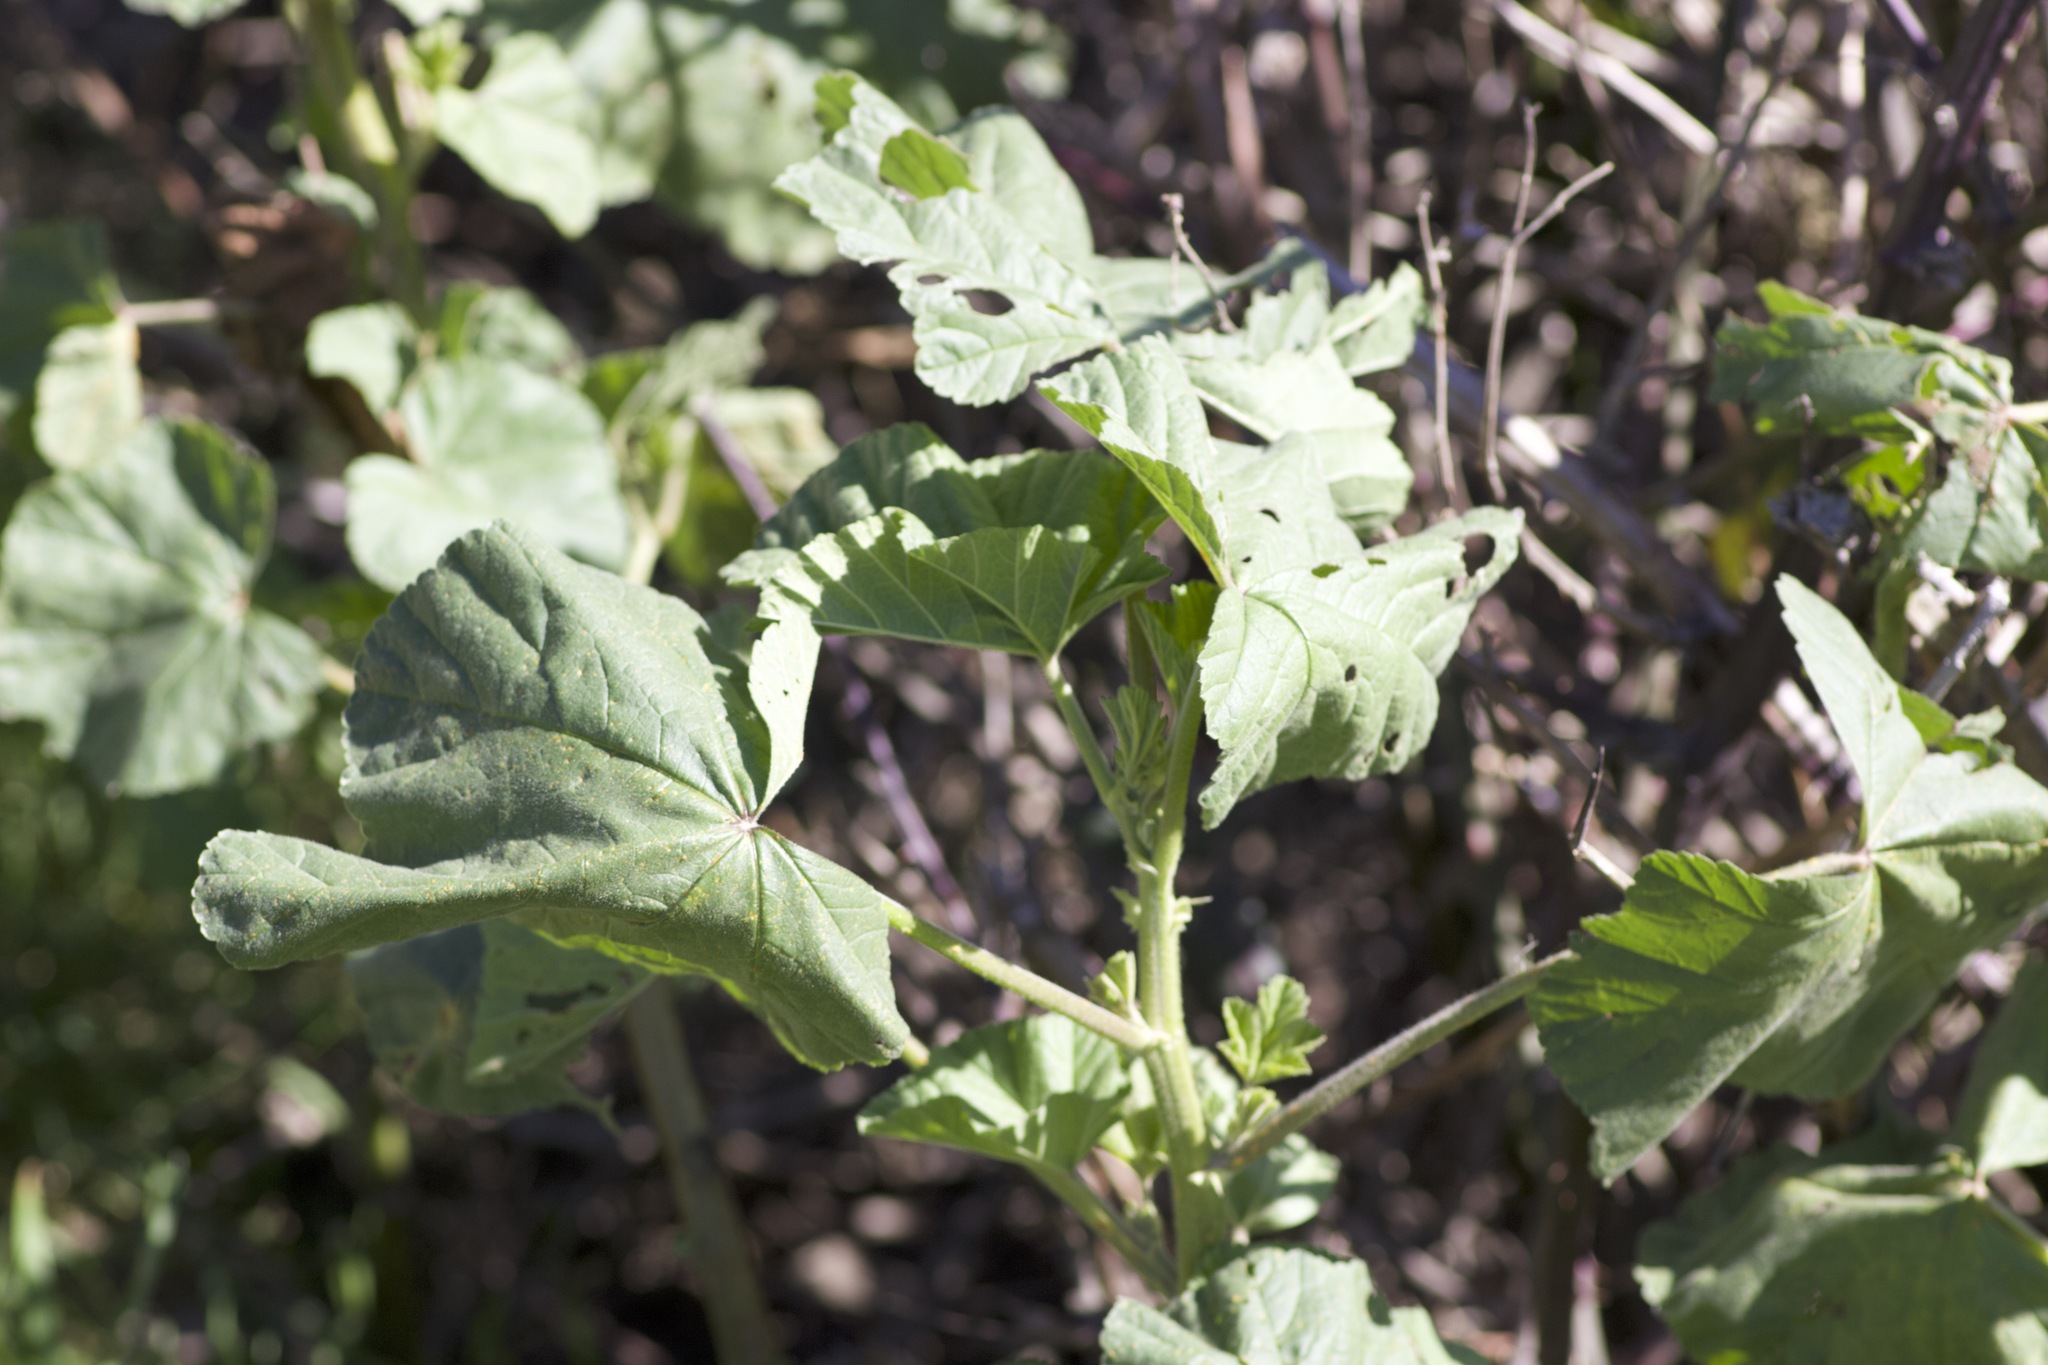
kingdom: Plantae
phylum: Tracheophyta
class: Magnoliopsida
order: Malvales
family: Malvaceae
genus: Malva
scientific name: Malva
